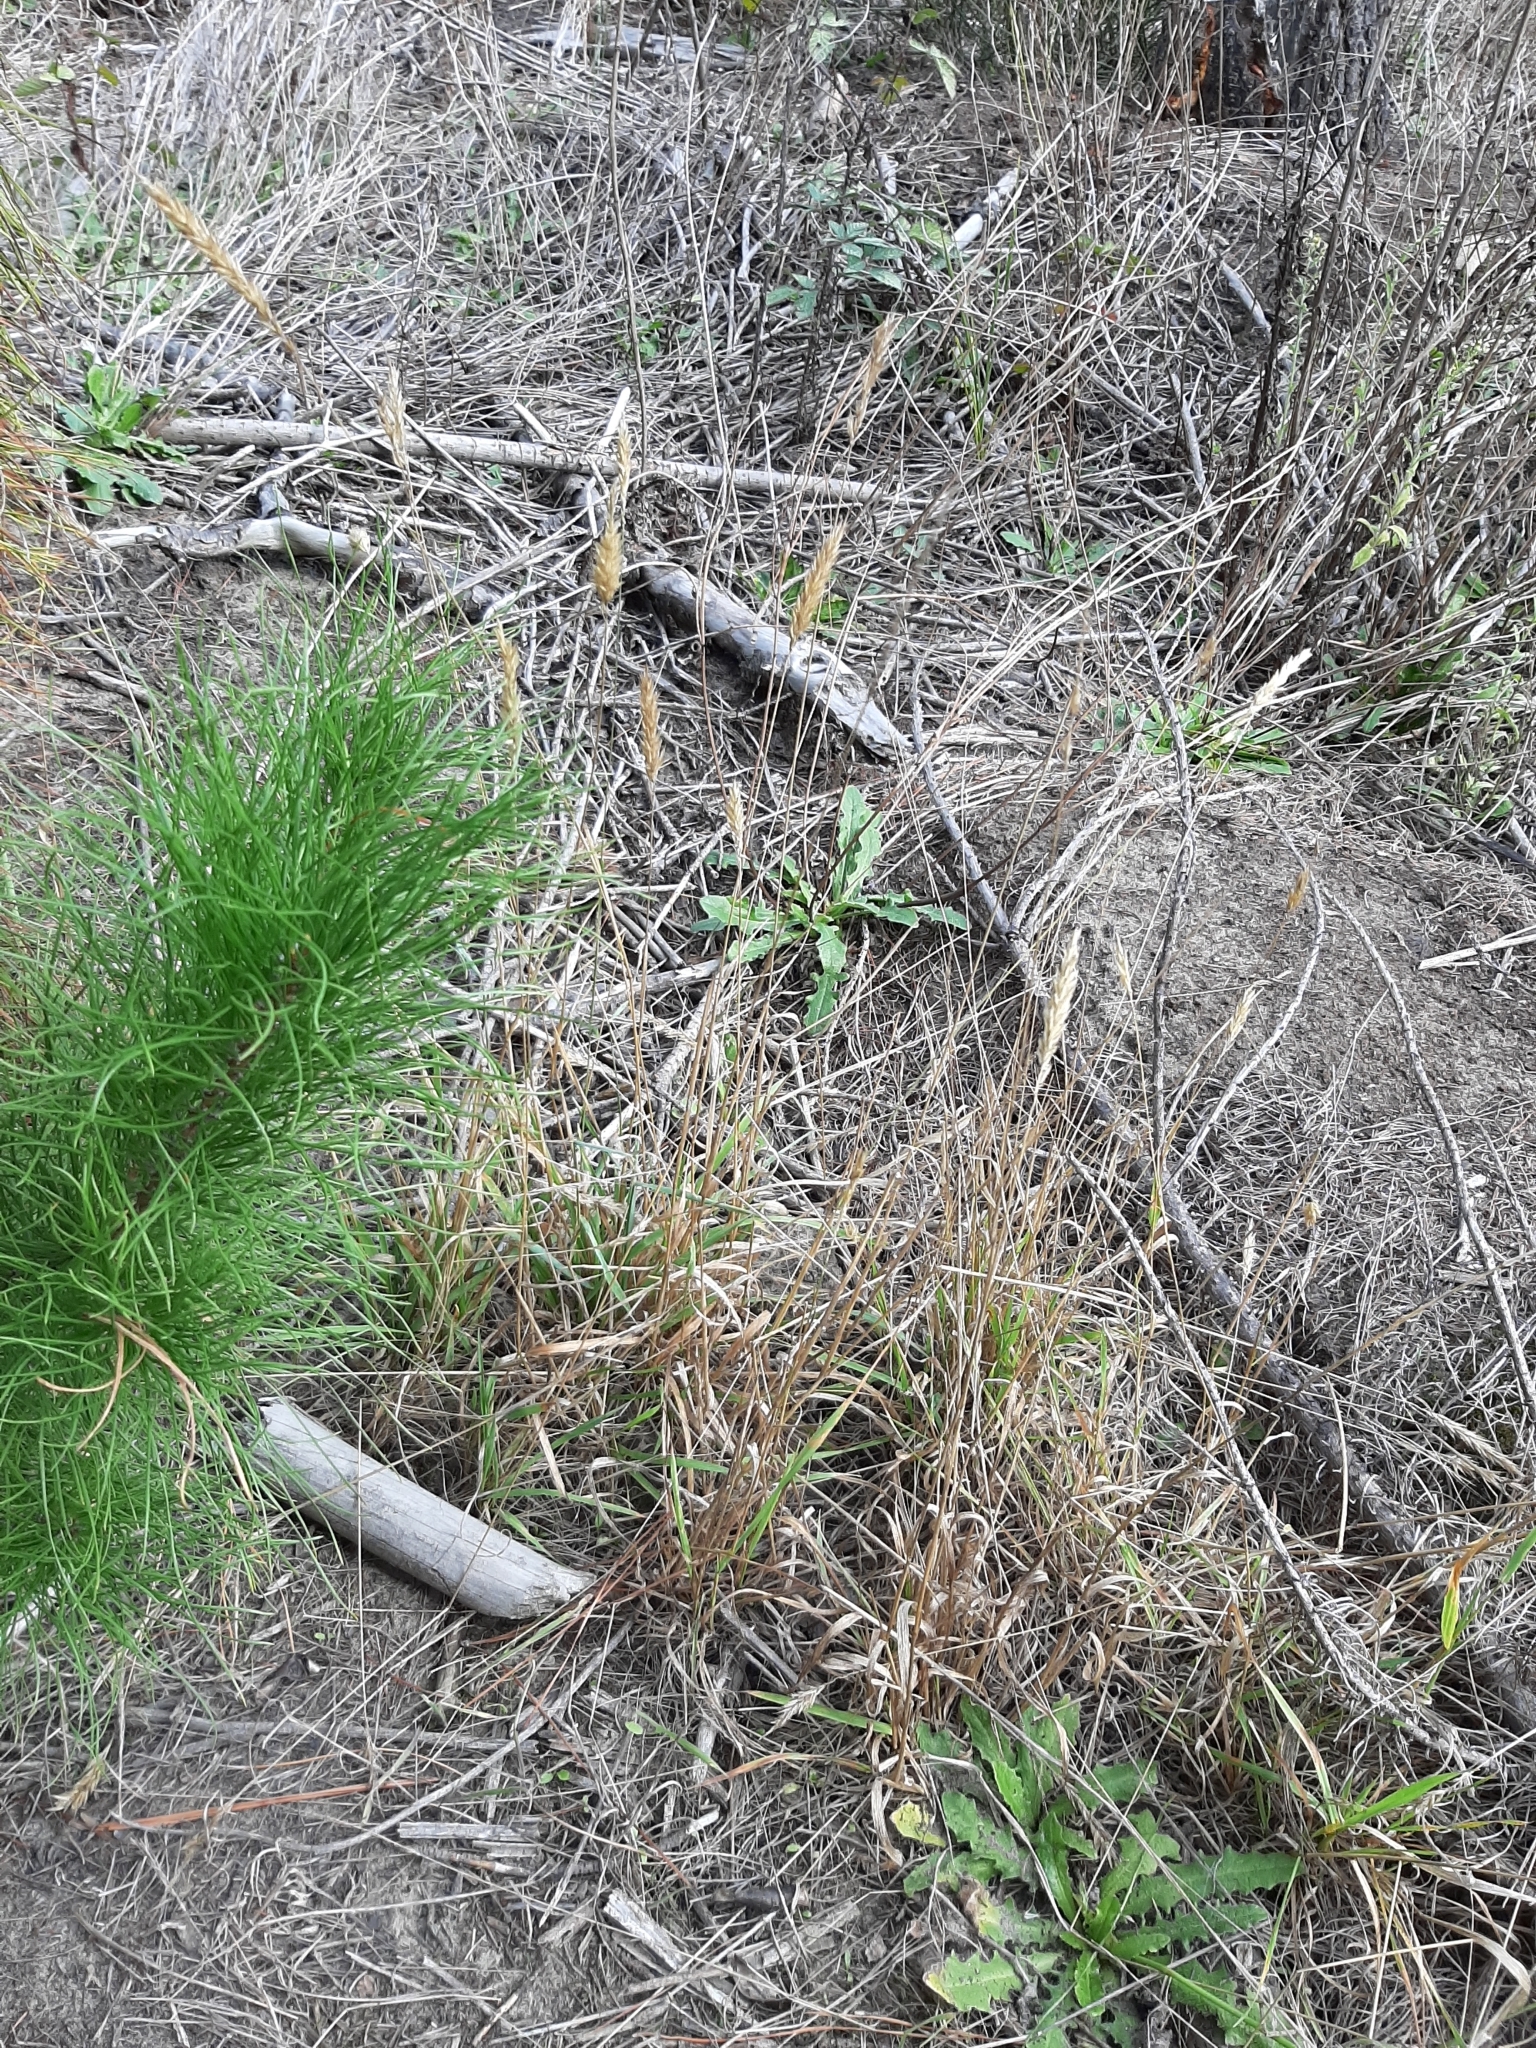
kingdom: Plantae
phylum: Tracheophyta
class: Liliopsida
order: Poales
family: Poaceae
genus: Anthoxanthum
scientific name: Anthoxanthum odoratum
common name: Sweet vernalgrass
